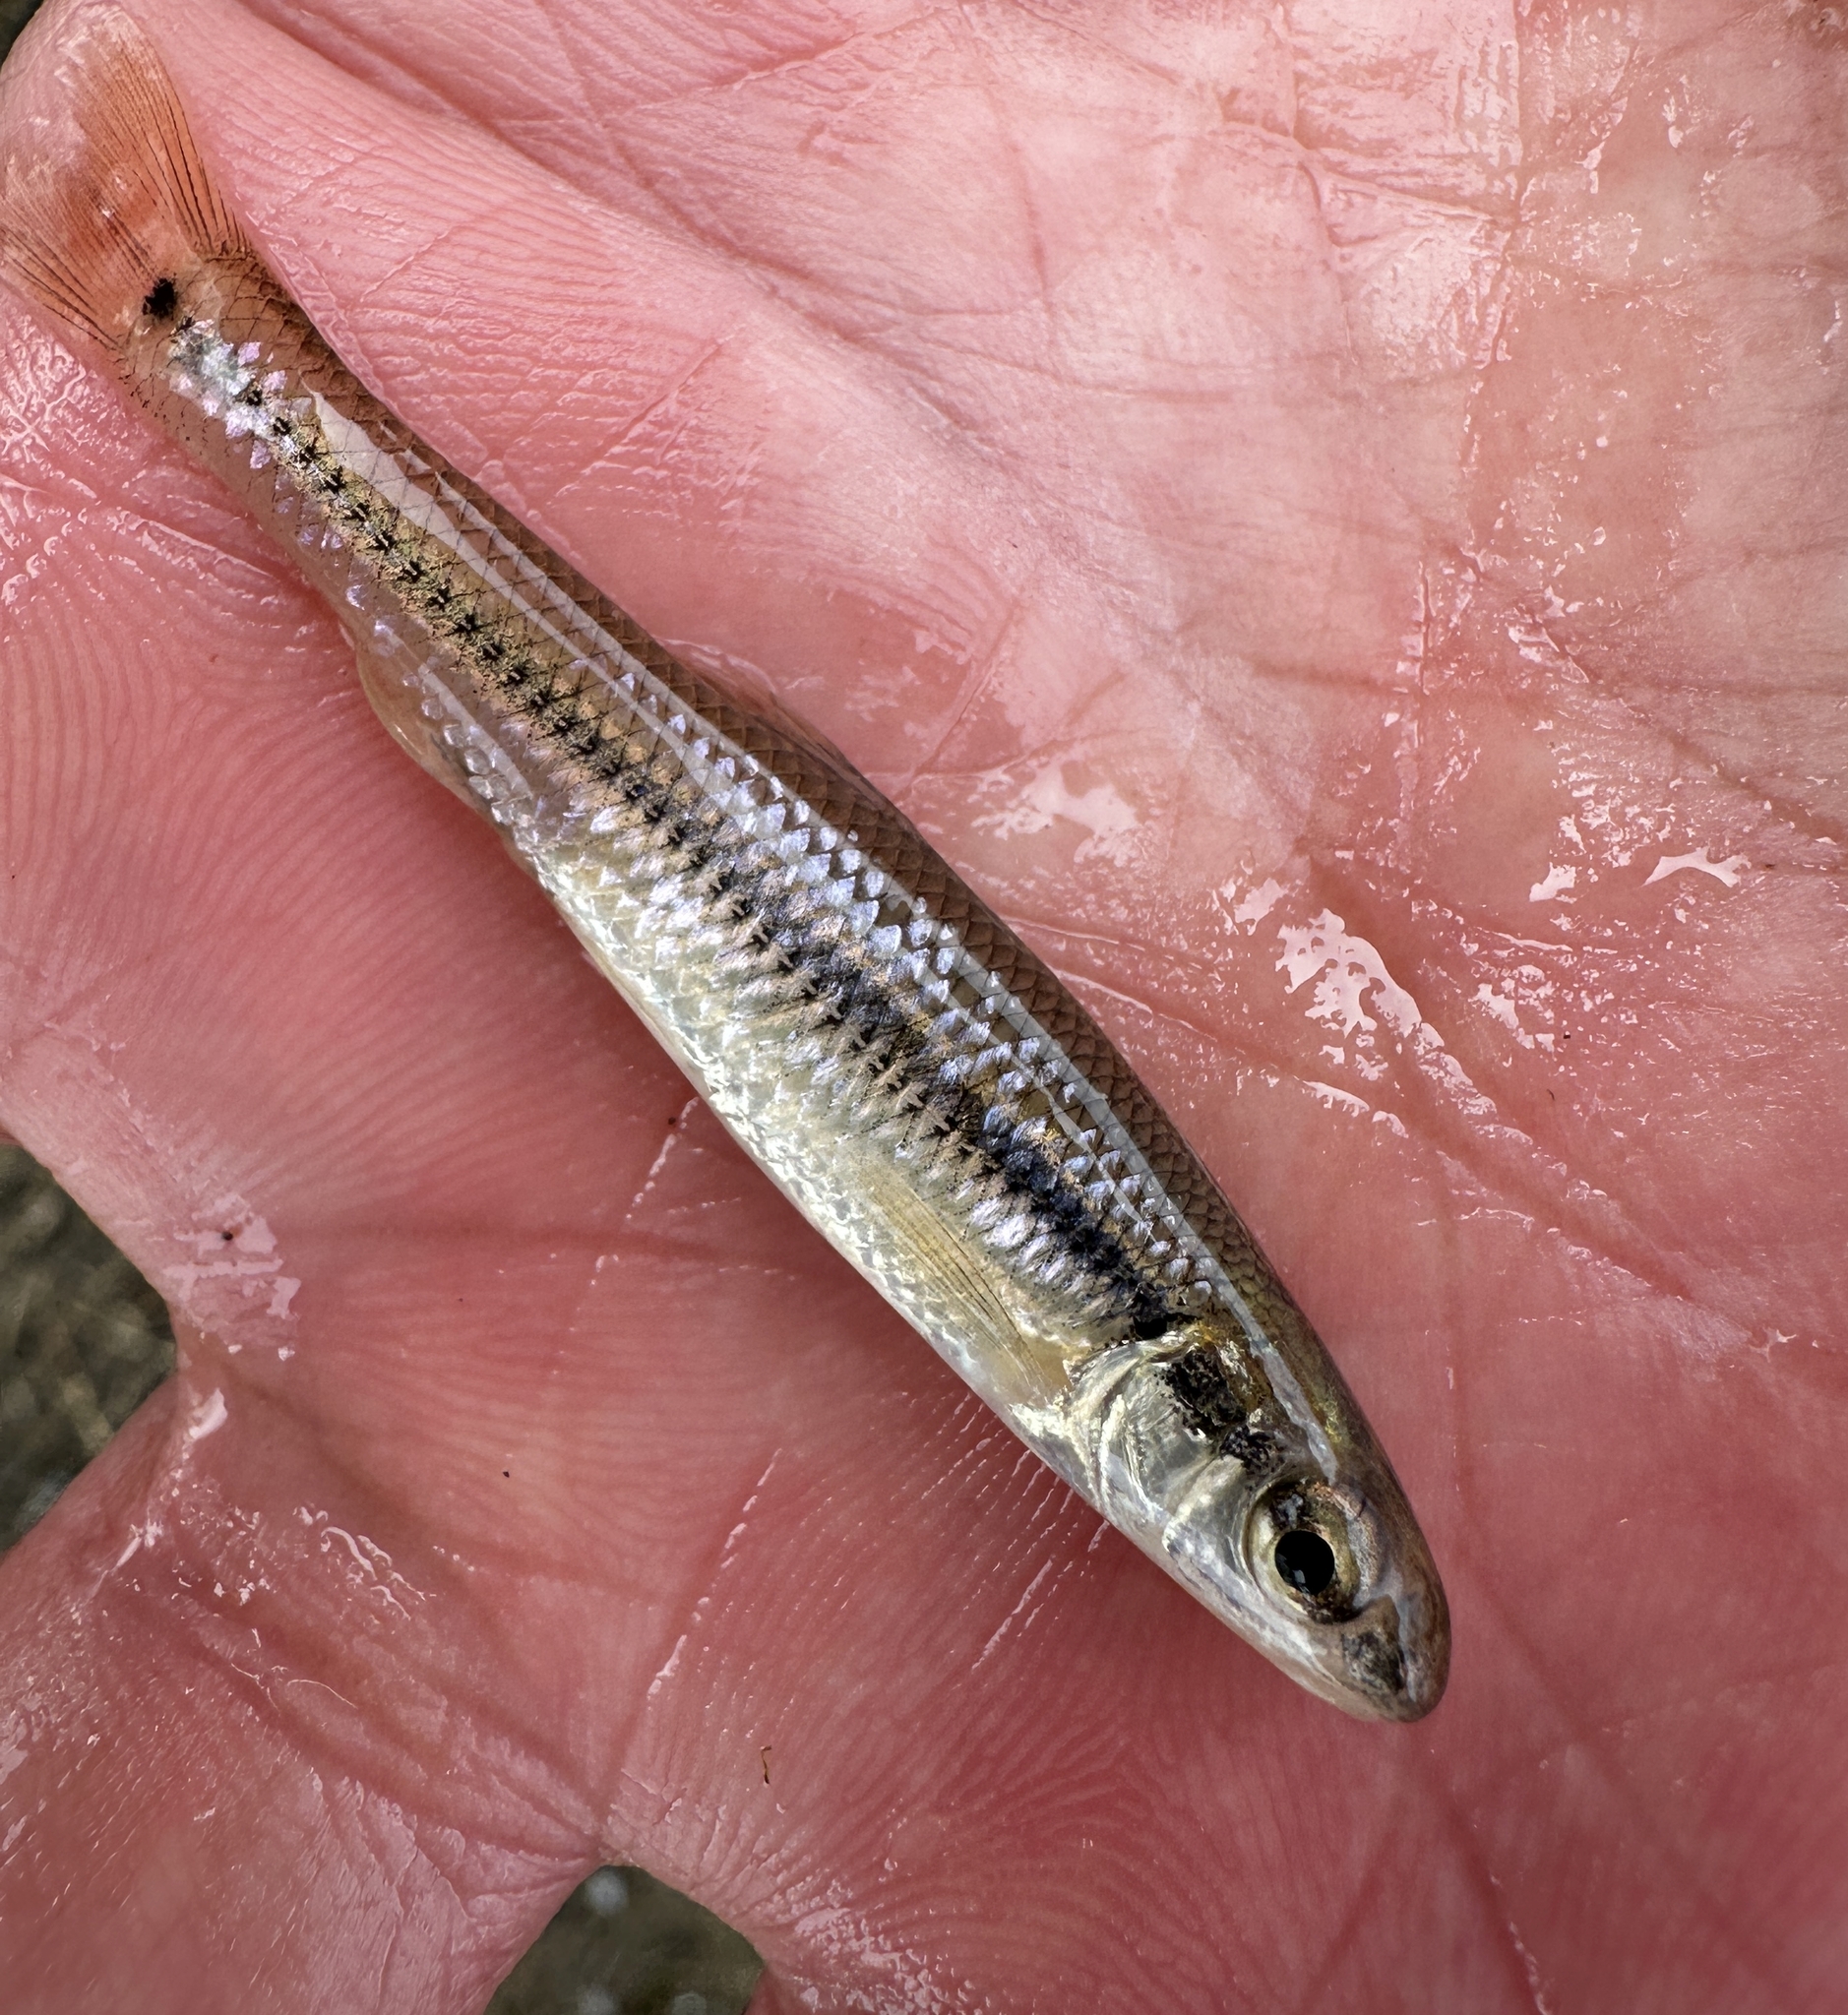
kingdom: Animalia
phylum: Chordata
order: Cypriniformes
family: Cyprinidae
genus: Pimephales
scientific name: Pimephales notatus
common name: Bluntnose minnow
